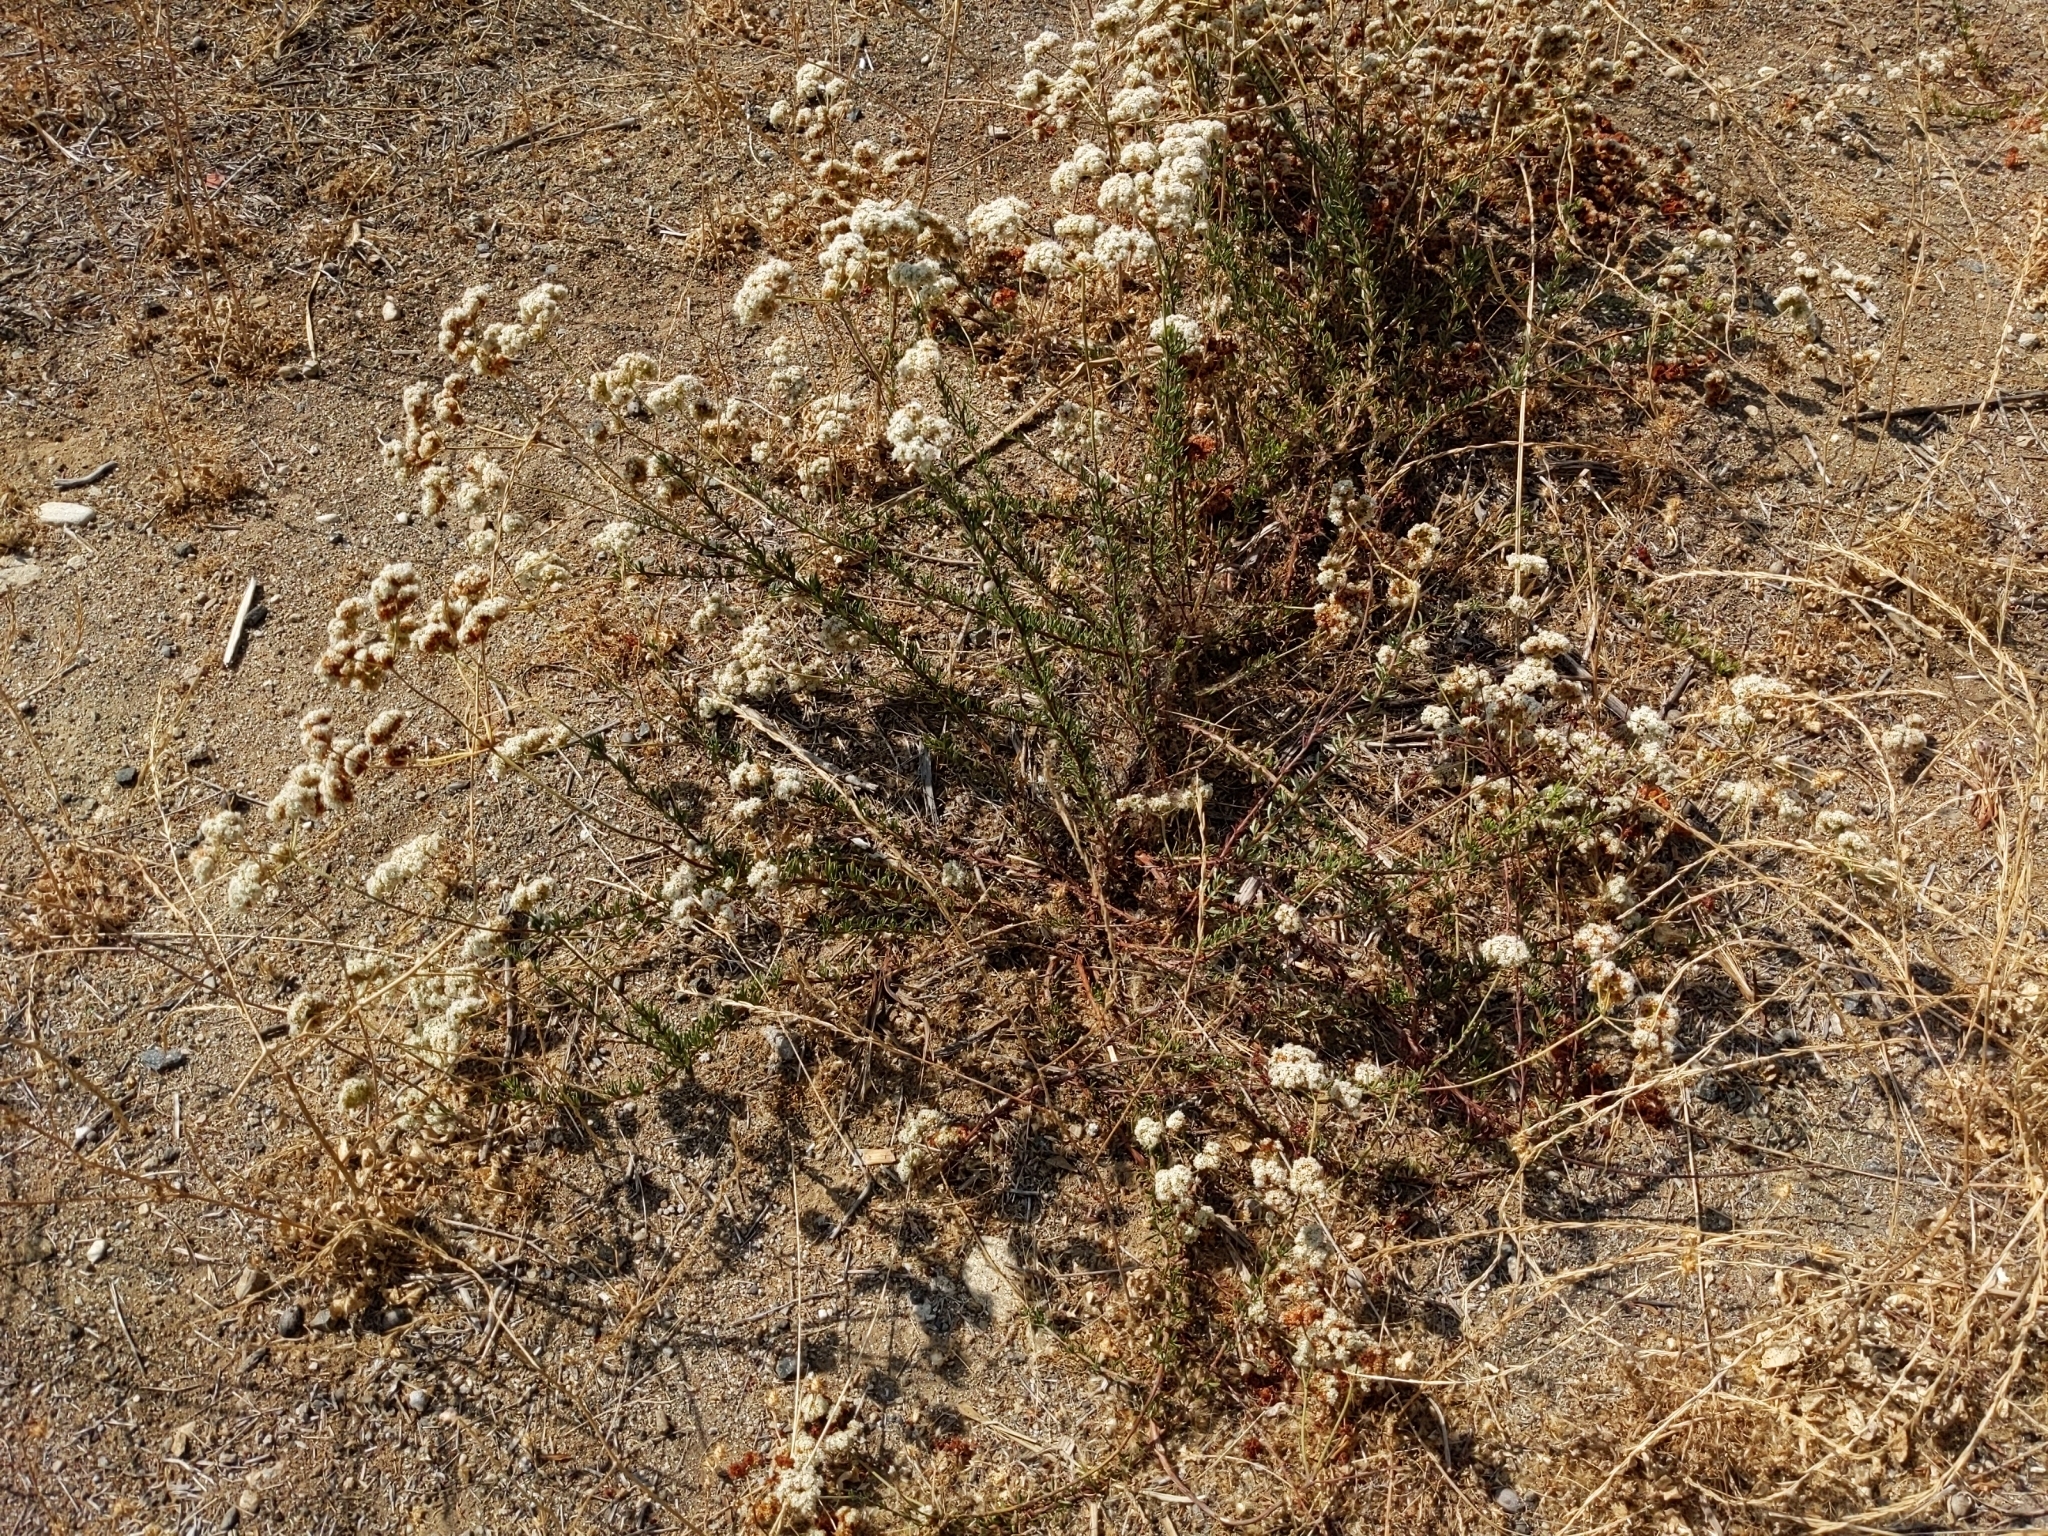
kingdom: Plantae
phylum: Tracheophyta
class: Magnoliopsida
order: Caryophyllales
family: Polygonaceae
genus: Eriogonum
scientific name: Eriogonum fasciculatum
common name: California wild buckwheat
